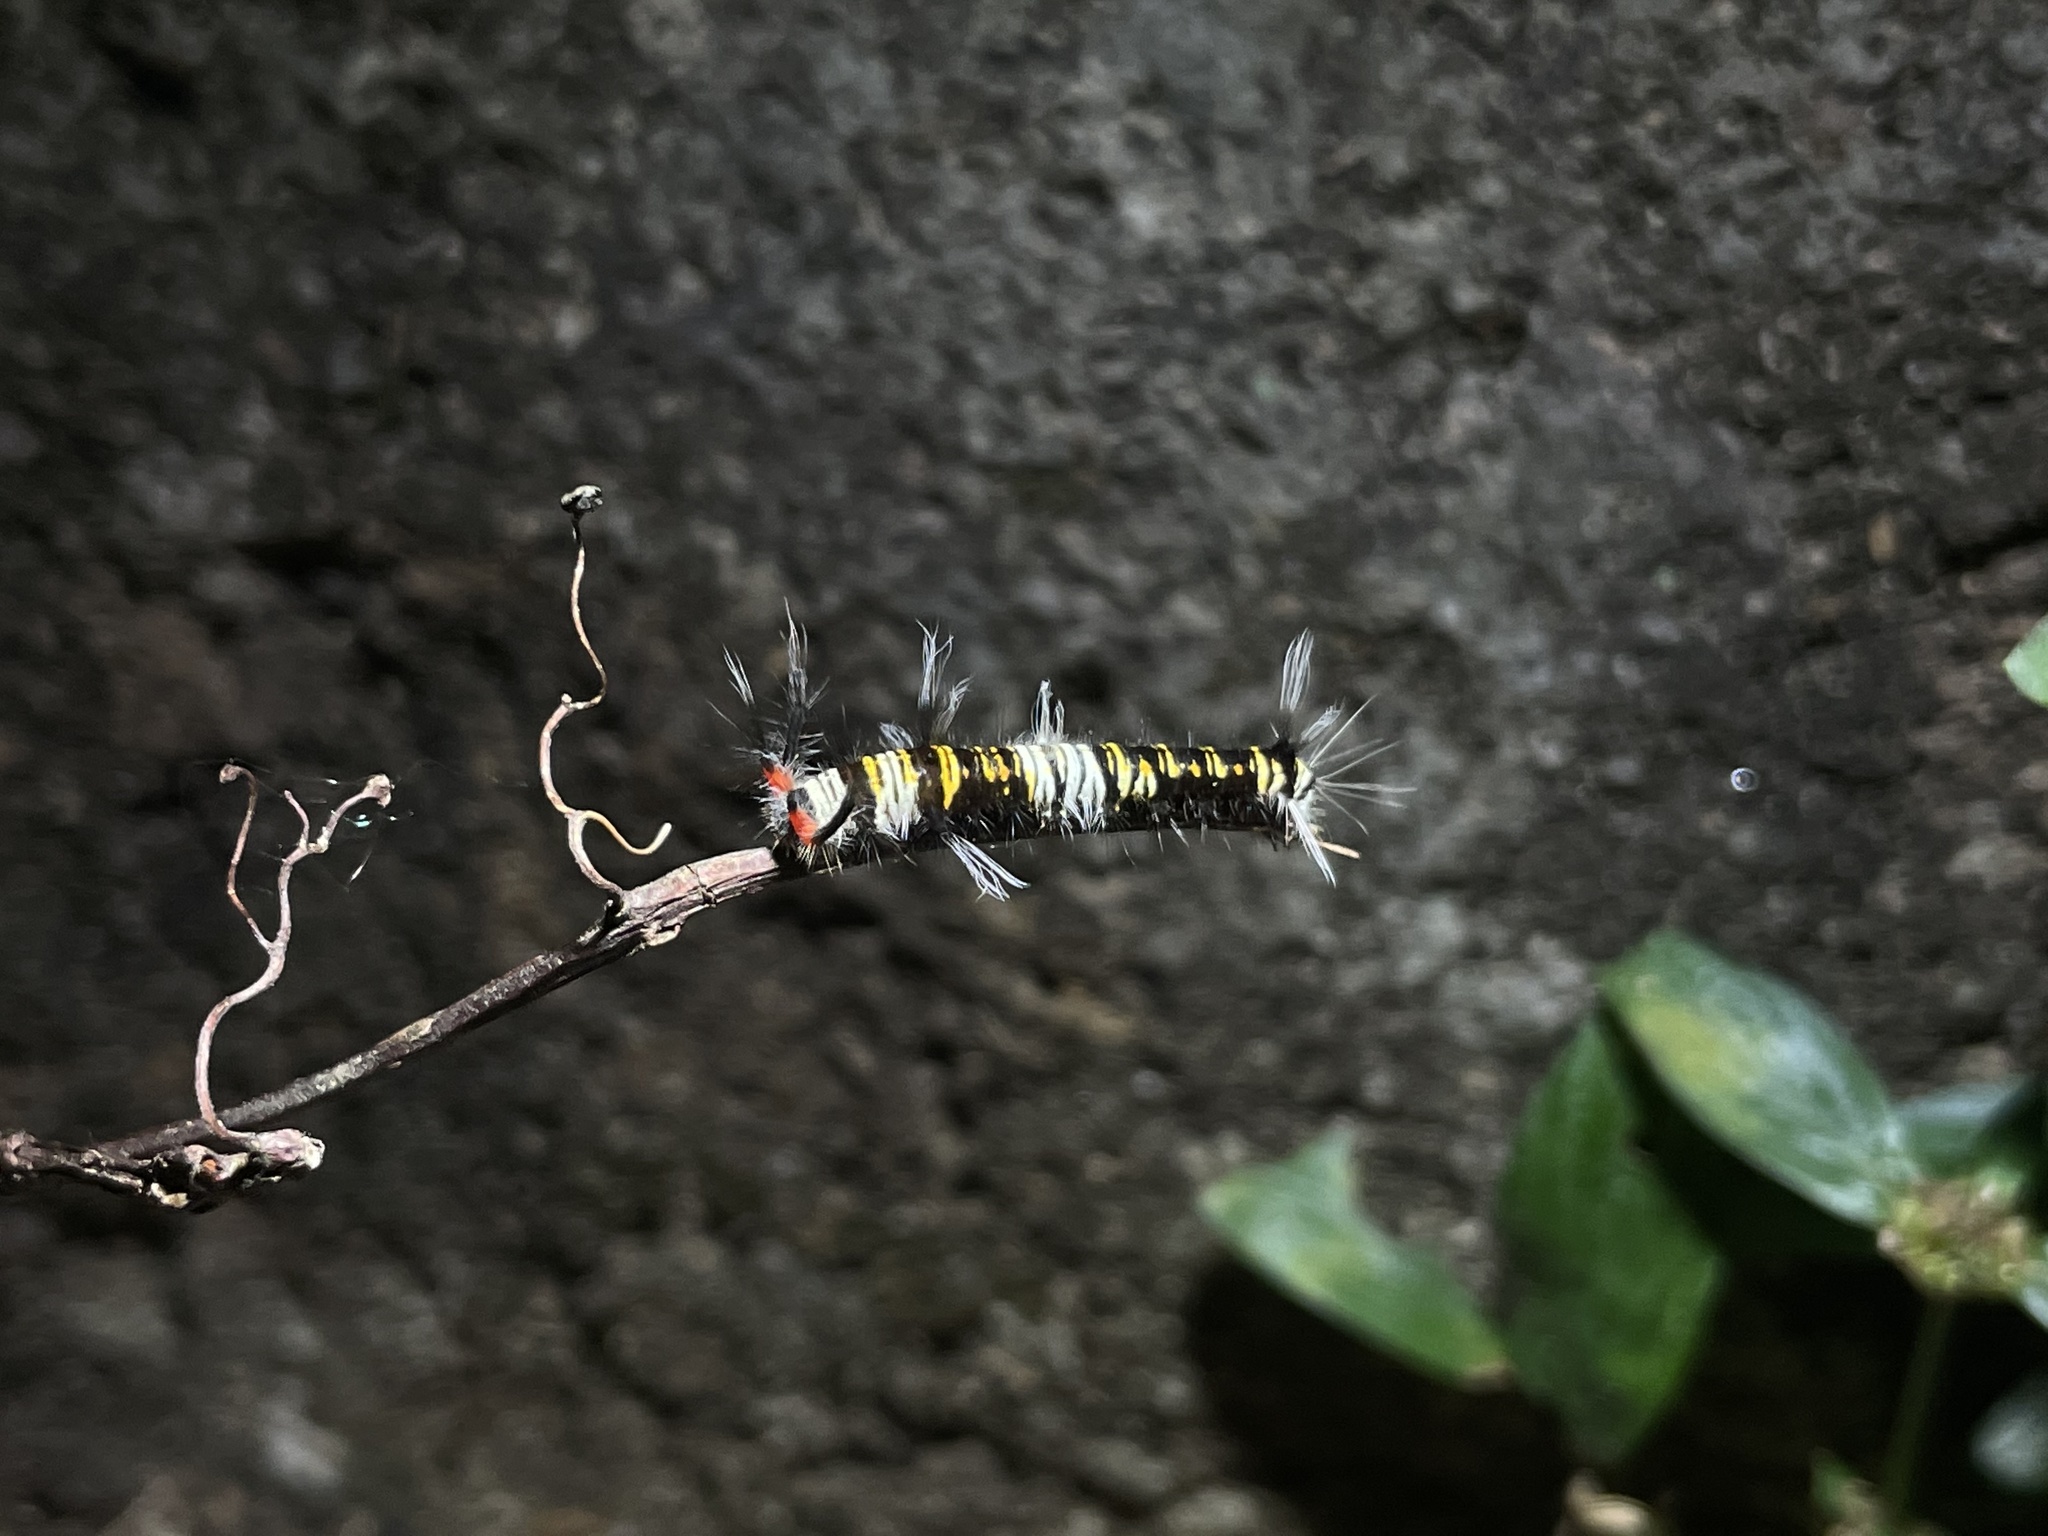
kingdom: Animalia
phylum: Arthropoda
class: Insecta
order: Lepidoptera
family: Lasiocampidae
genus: Kunugia
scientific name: Kunugia divaricata
